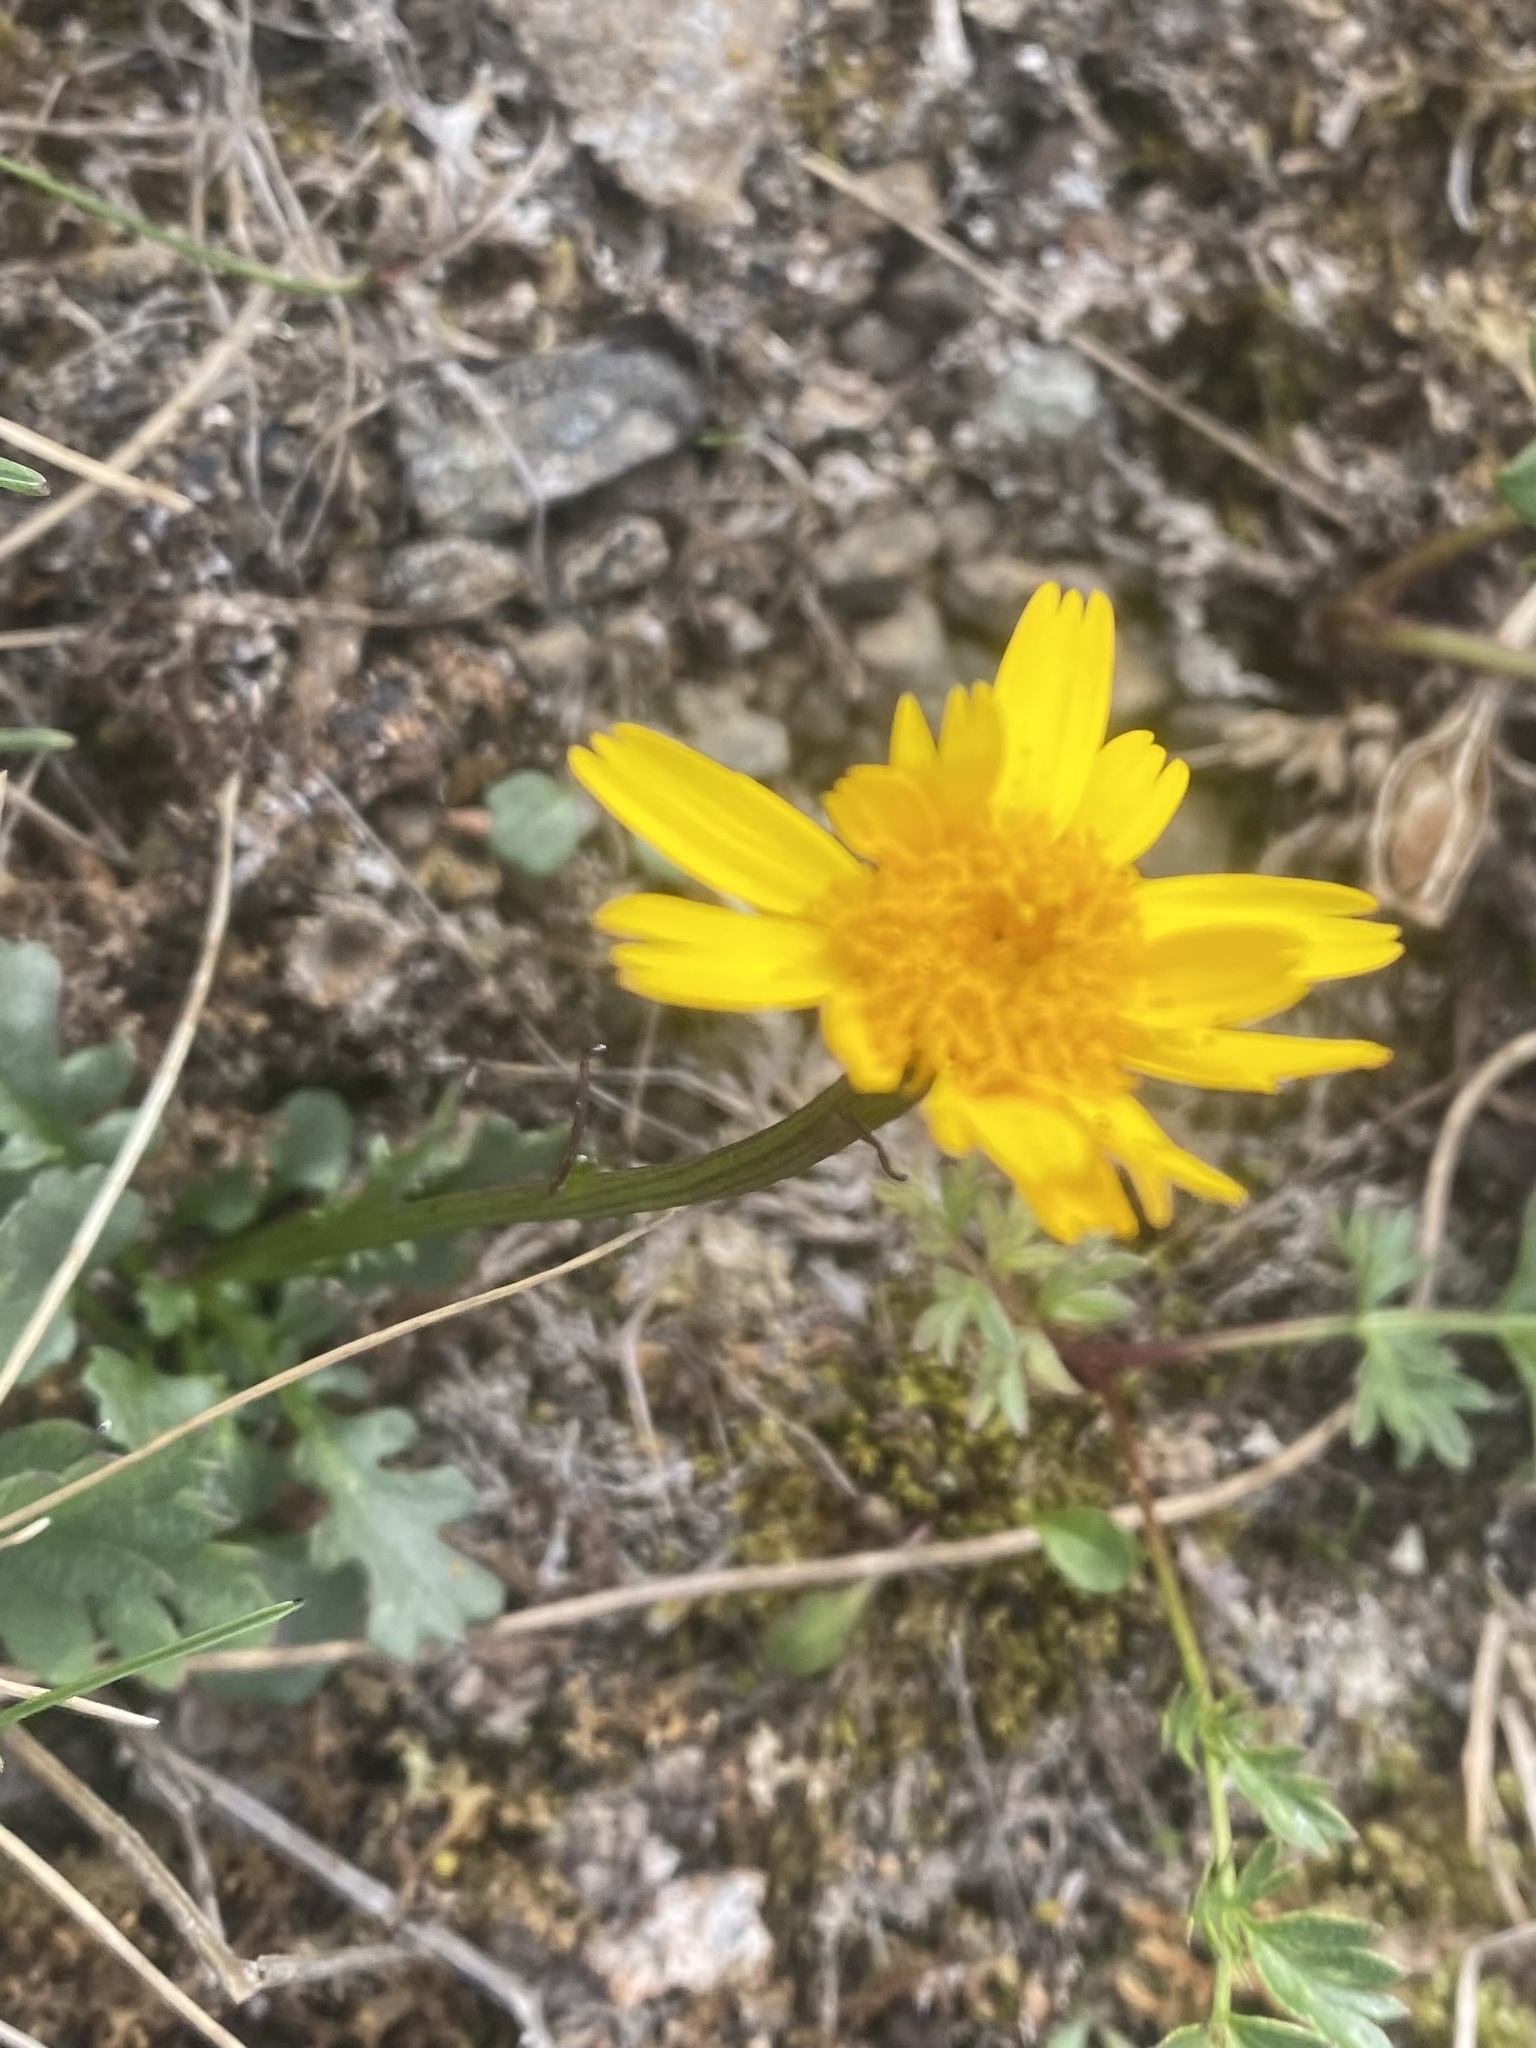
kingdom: Plantae
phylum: Tracheophyta
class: Magnoliopsida
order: Asterales
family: Asteraceae
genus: Arnica
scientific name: Arnica angustifolia
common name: Arctic arnica
